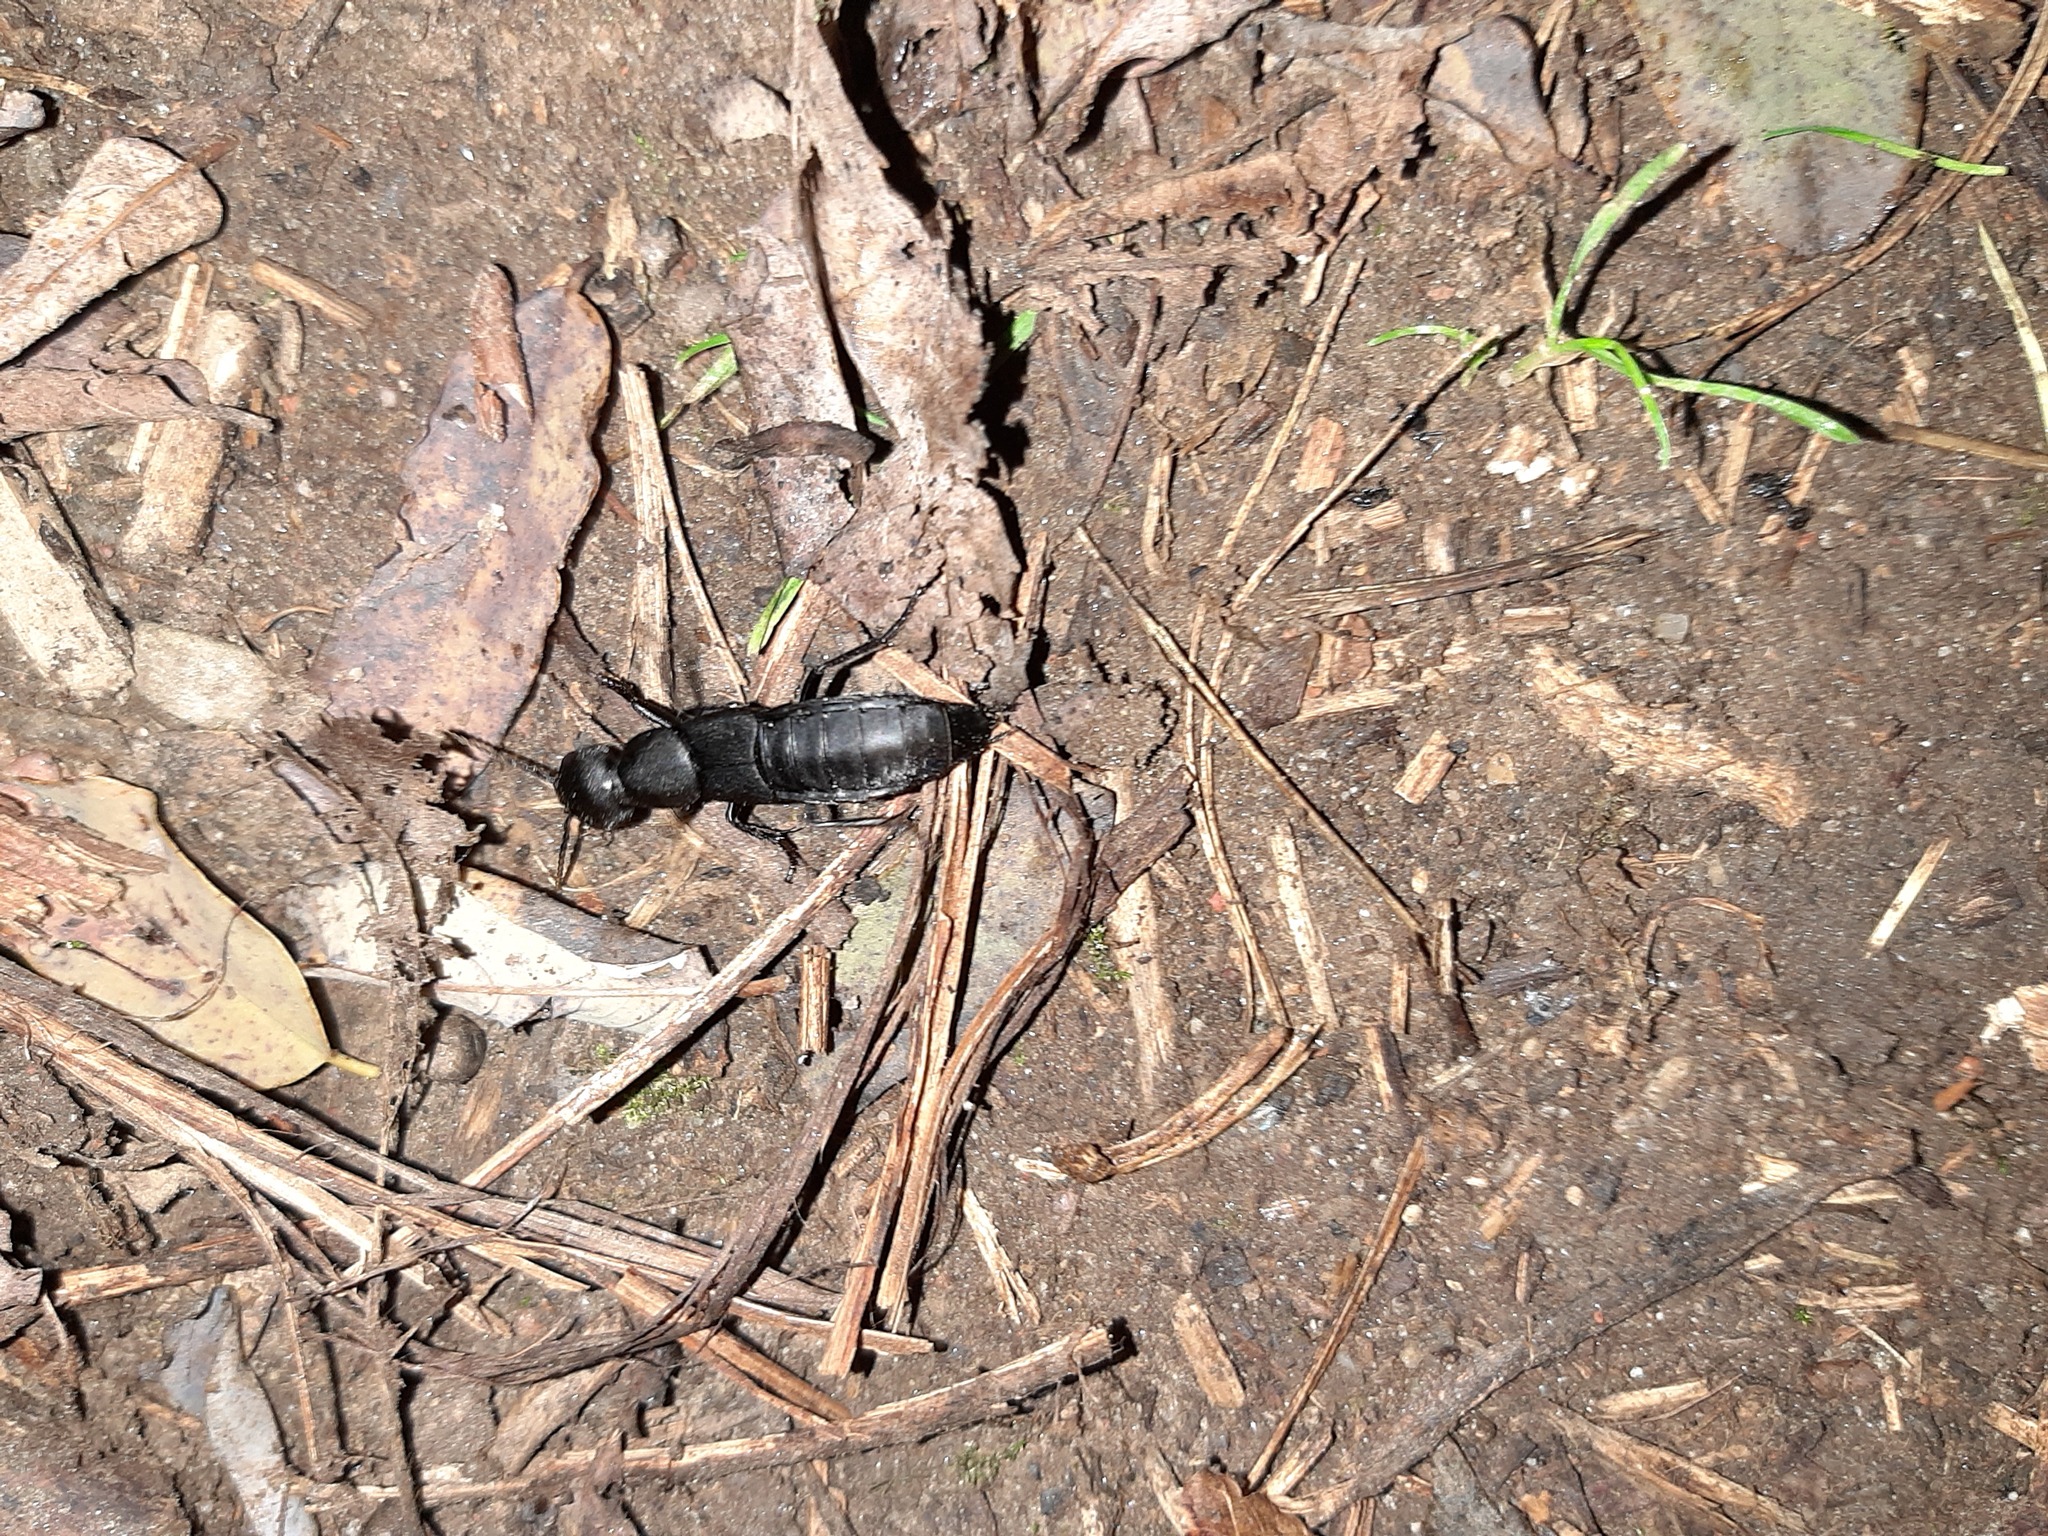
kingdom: Animalia
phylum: Arthropoda
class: Insecta
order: Coleoptera
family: Staphylinidae
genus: Ocypus
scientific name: Ocypus olens
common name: Devil's coach-horse
